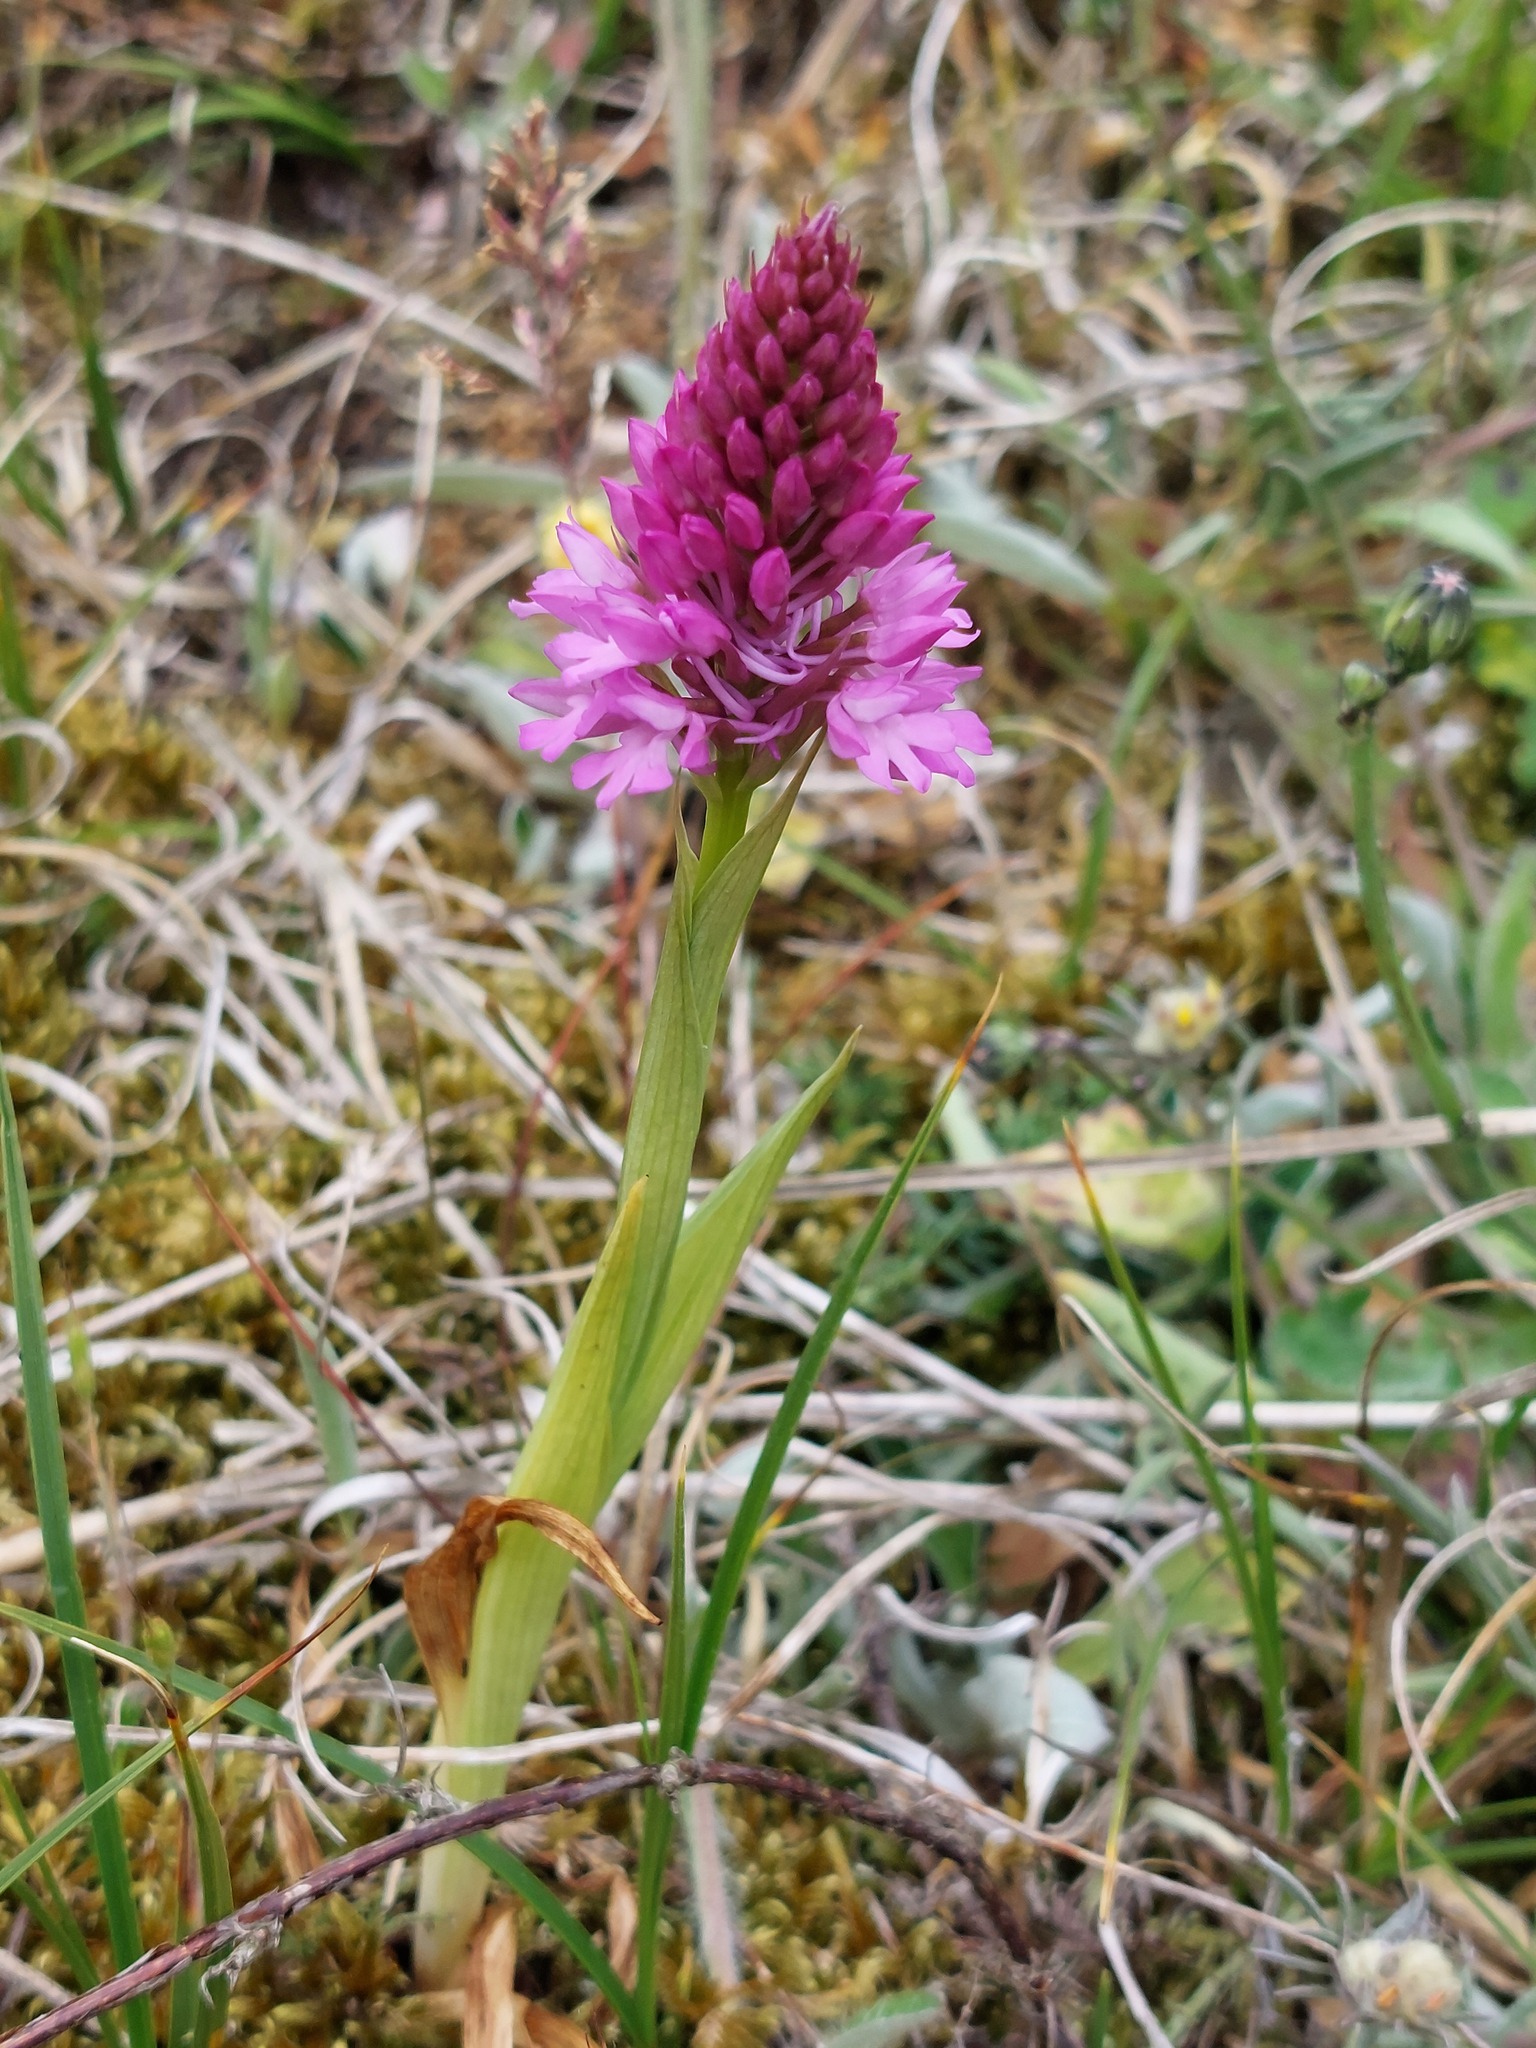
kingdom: Plantae
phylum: Tracheophyta
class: Liliopsida
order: Asparagales
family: Orchidaceae
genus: Anacamptis
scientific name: Anacamptis pyramidalis
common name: Pyramidal orchid
